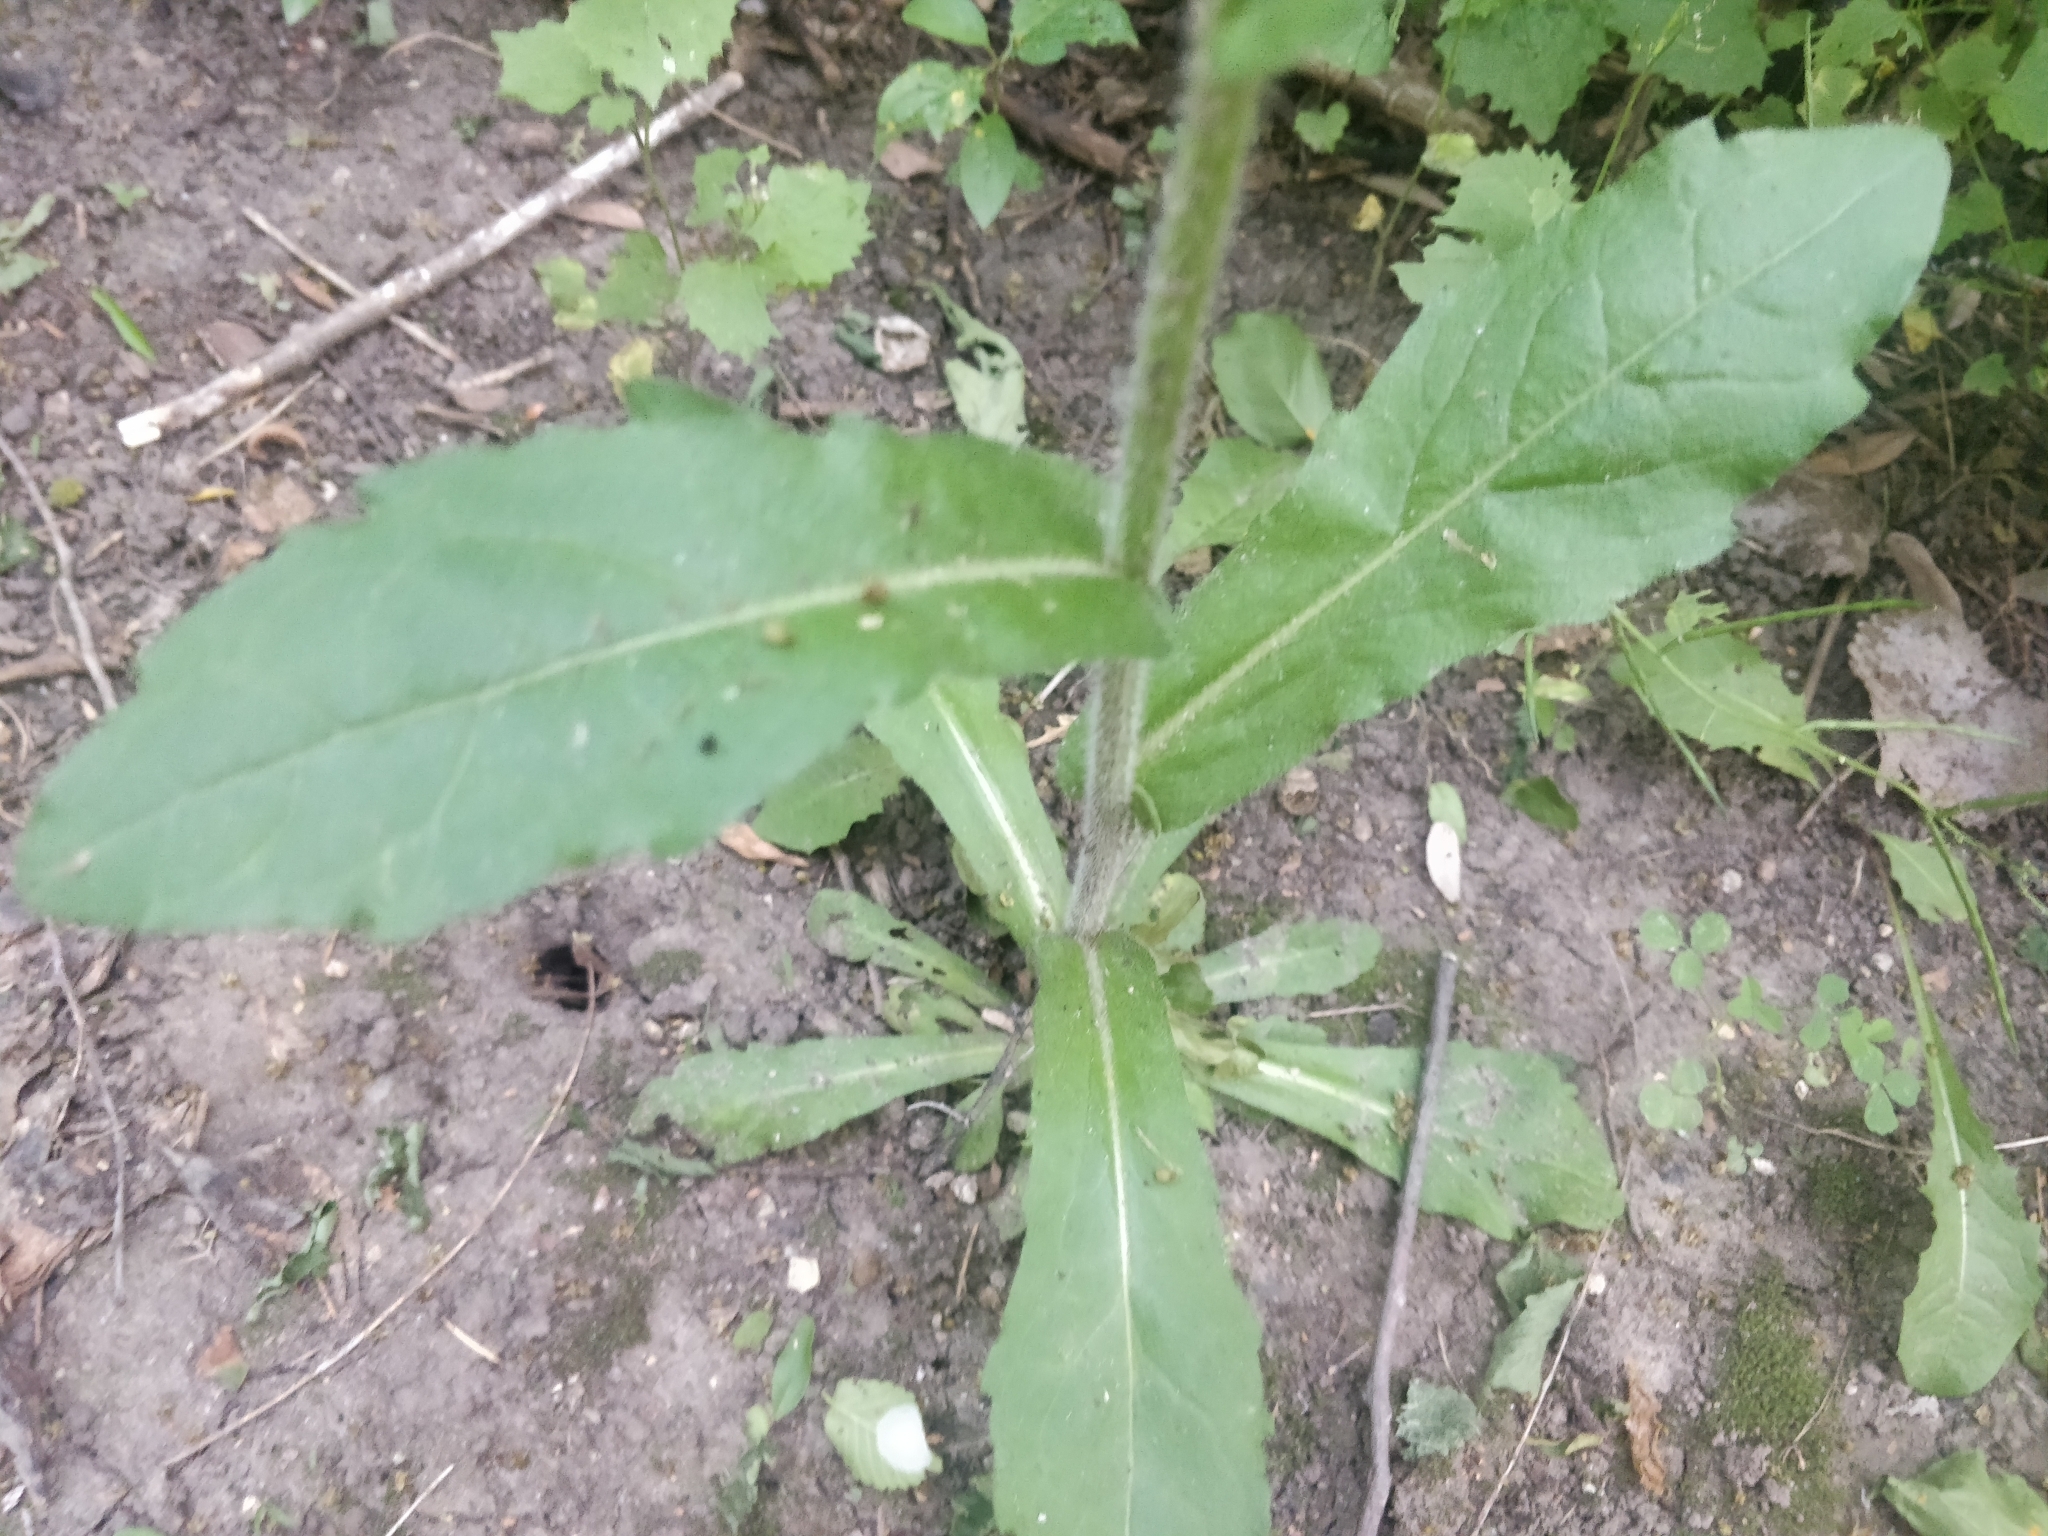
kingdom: Plantae
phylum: Tracheophyta
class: Magnoliopsida
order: Asterales
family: Asteraceae
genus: Erigeron
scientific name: Erigeron philadelphicus
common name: Robin's-plantain
